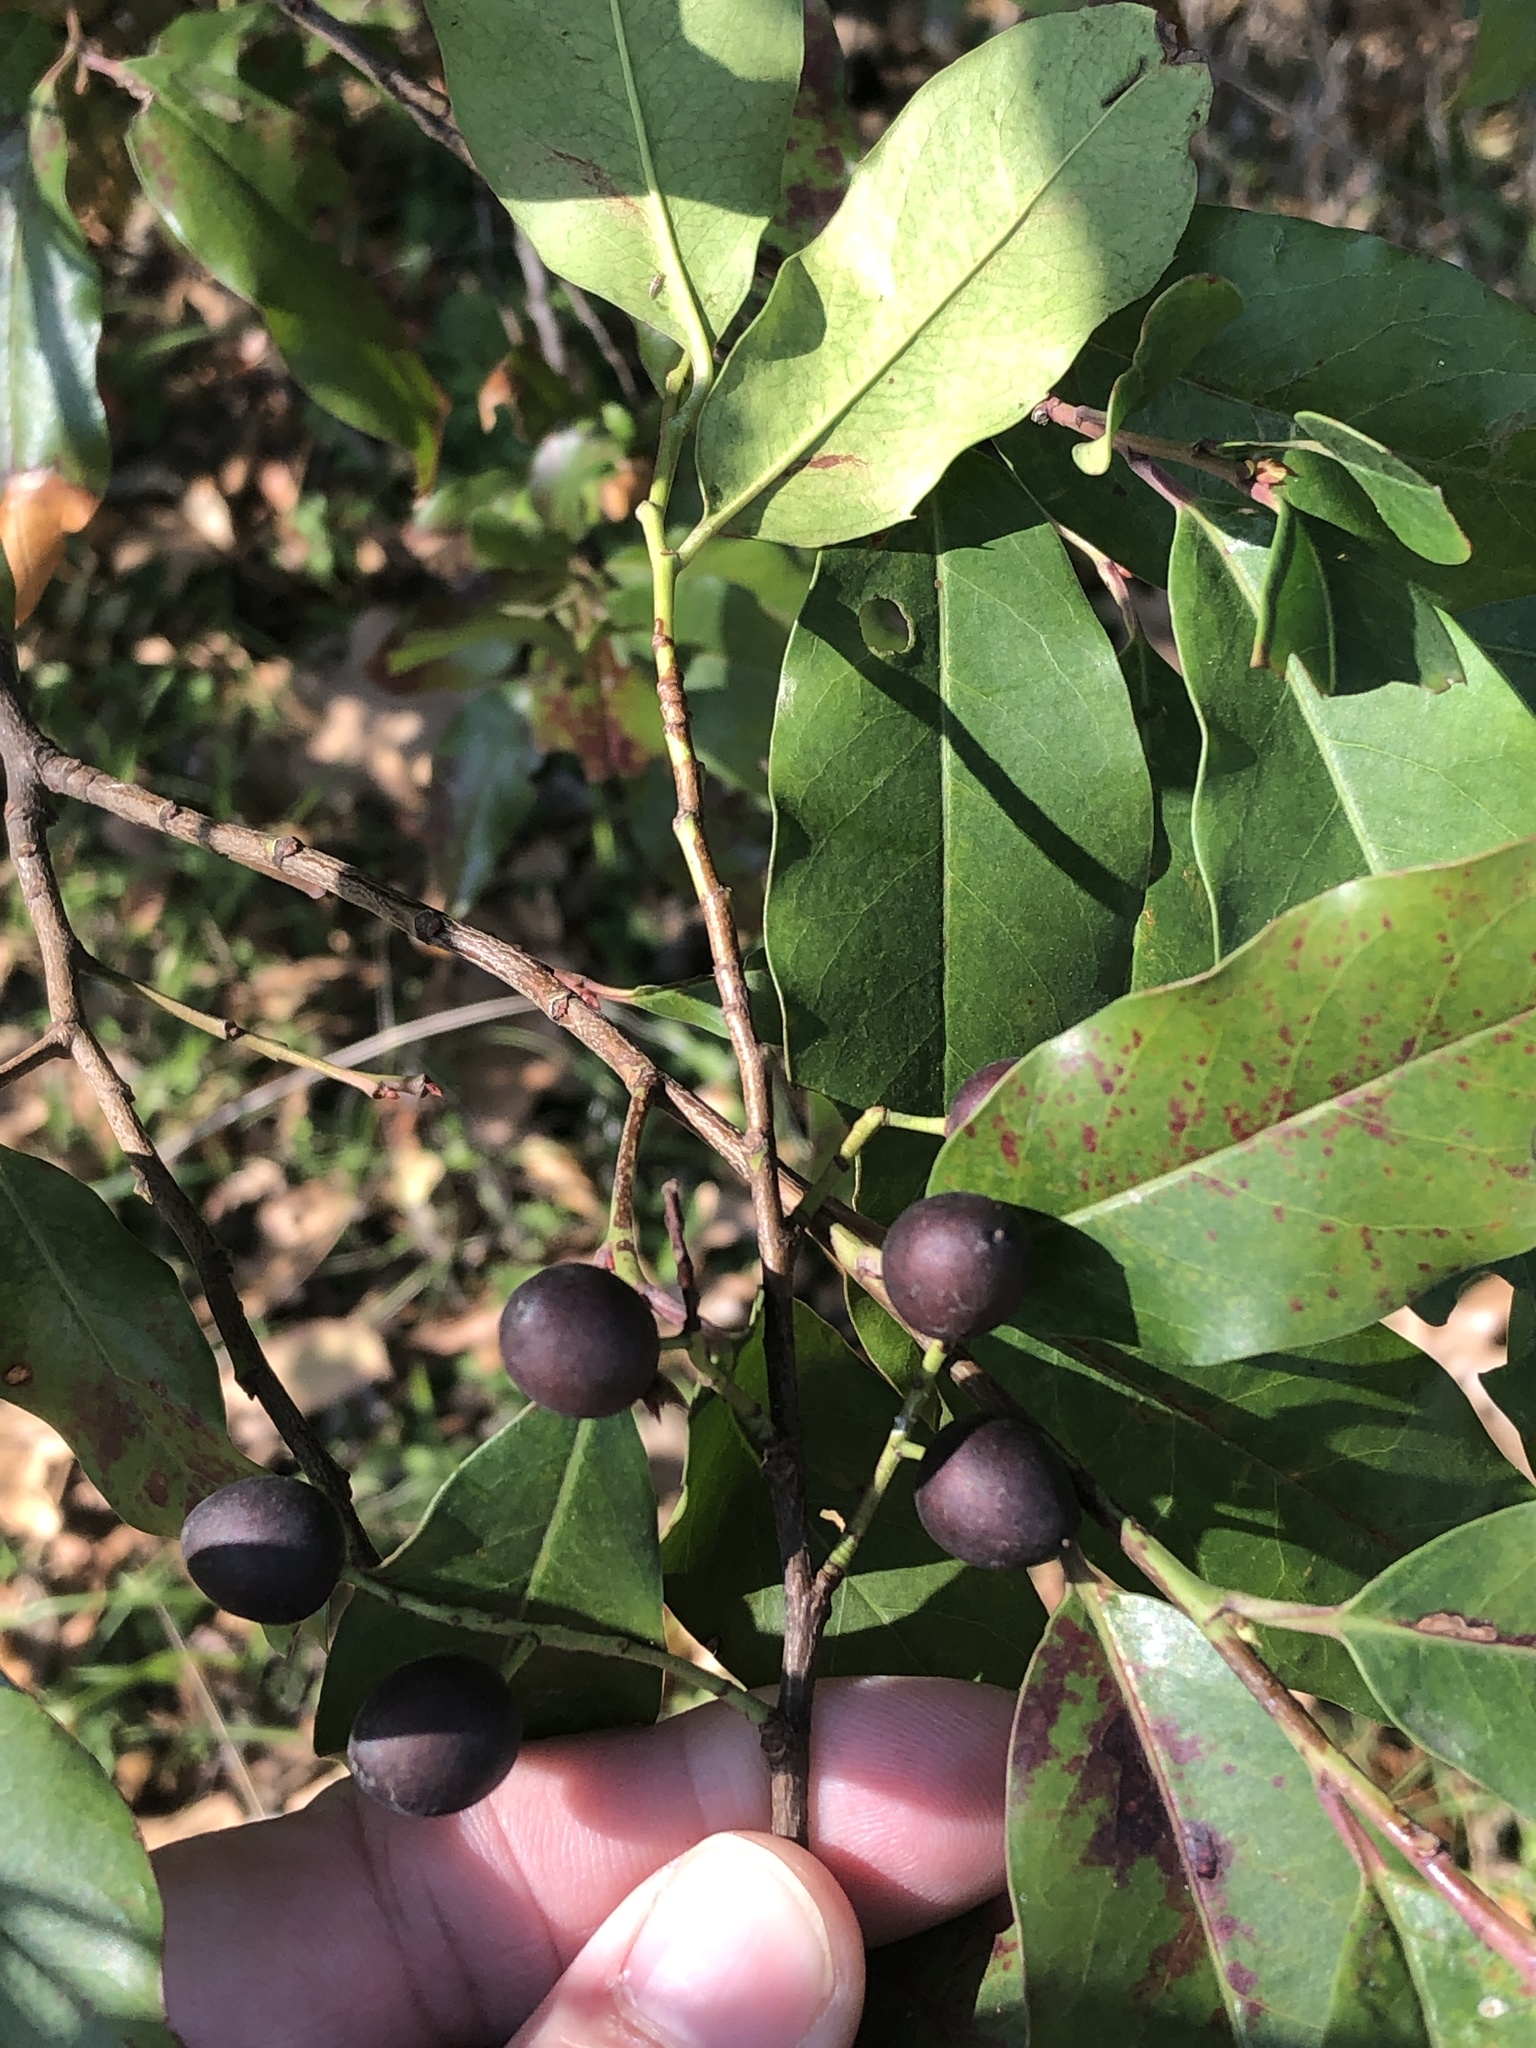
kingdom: Plantae
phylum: Tracheophyta
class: Magnoliopsida
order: Rosales
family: Rosaceae
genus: Prunus
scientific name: Prunus caroliniana
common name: Carolina laurel cherry
